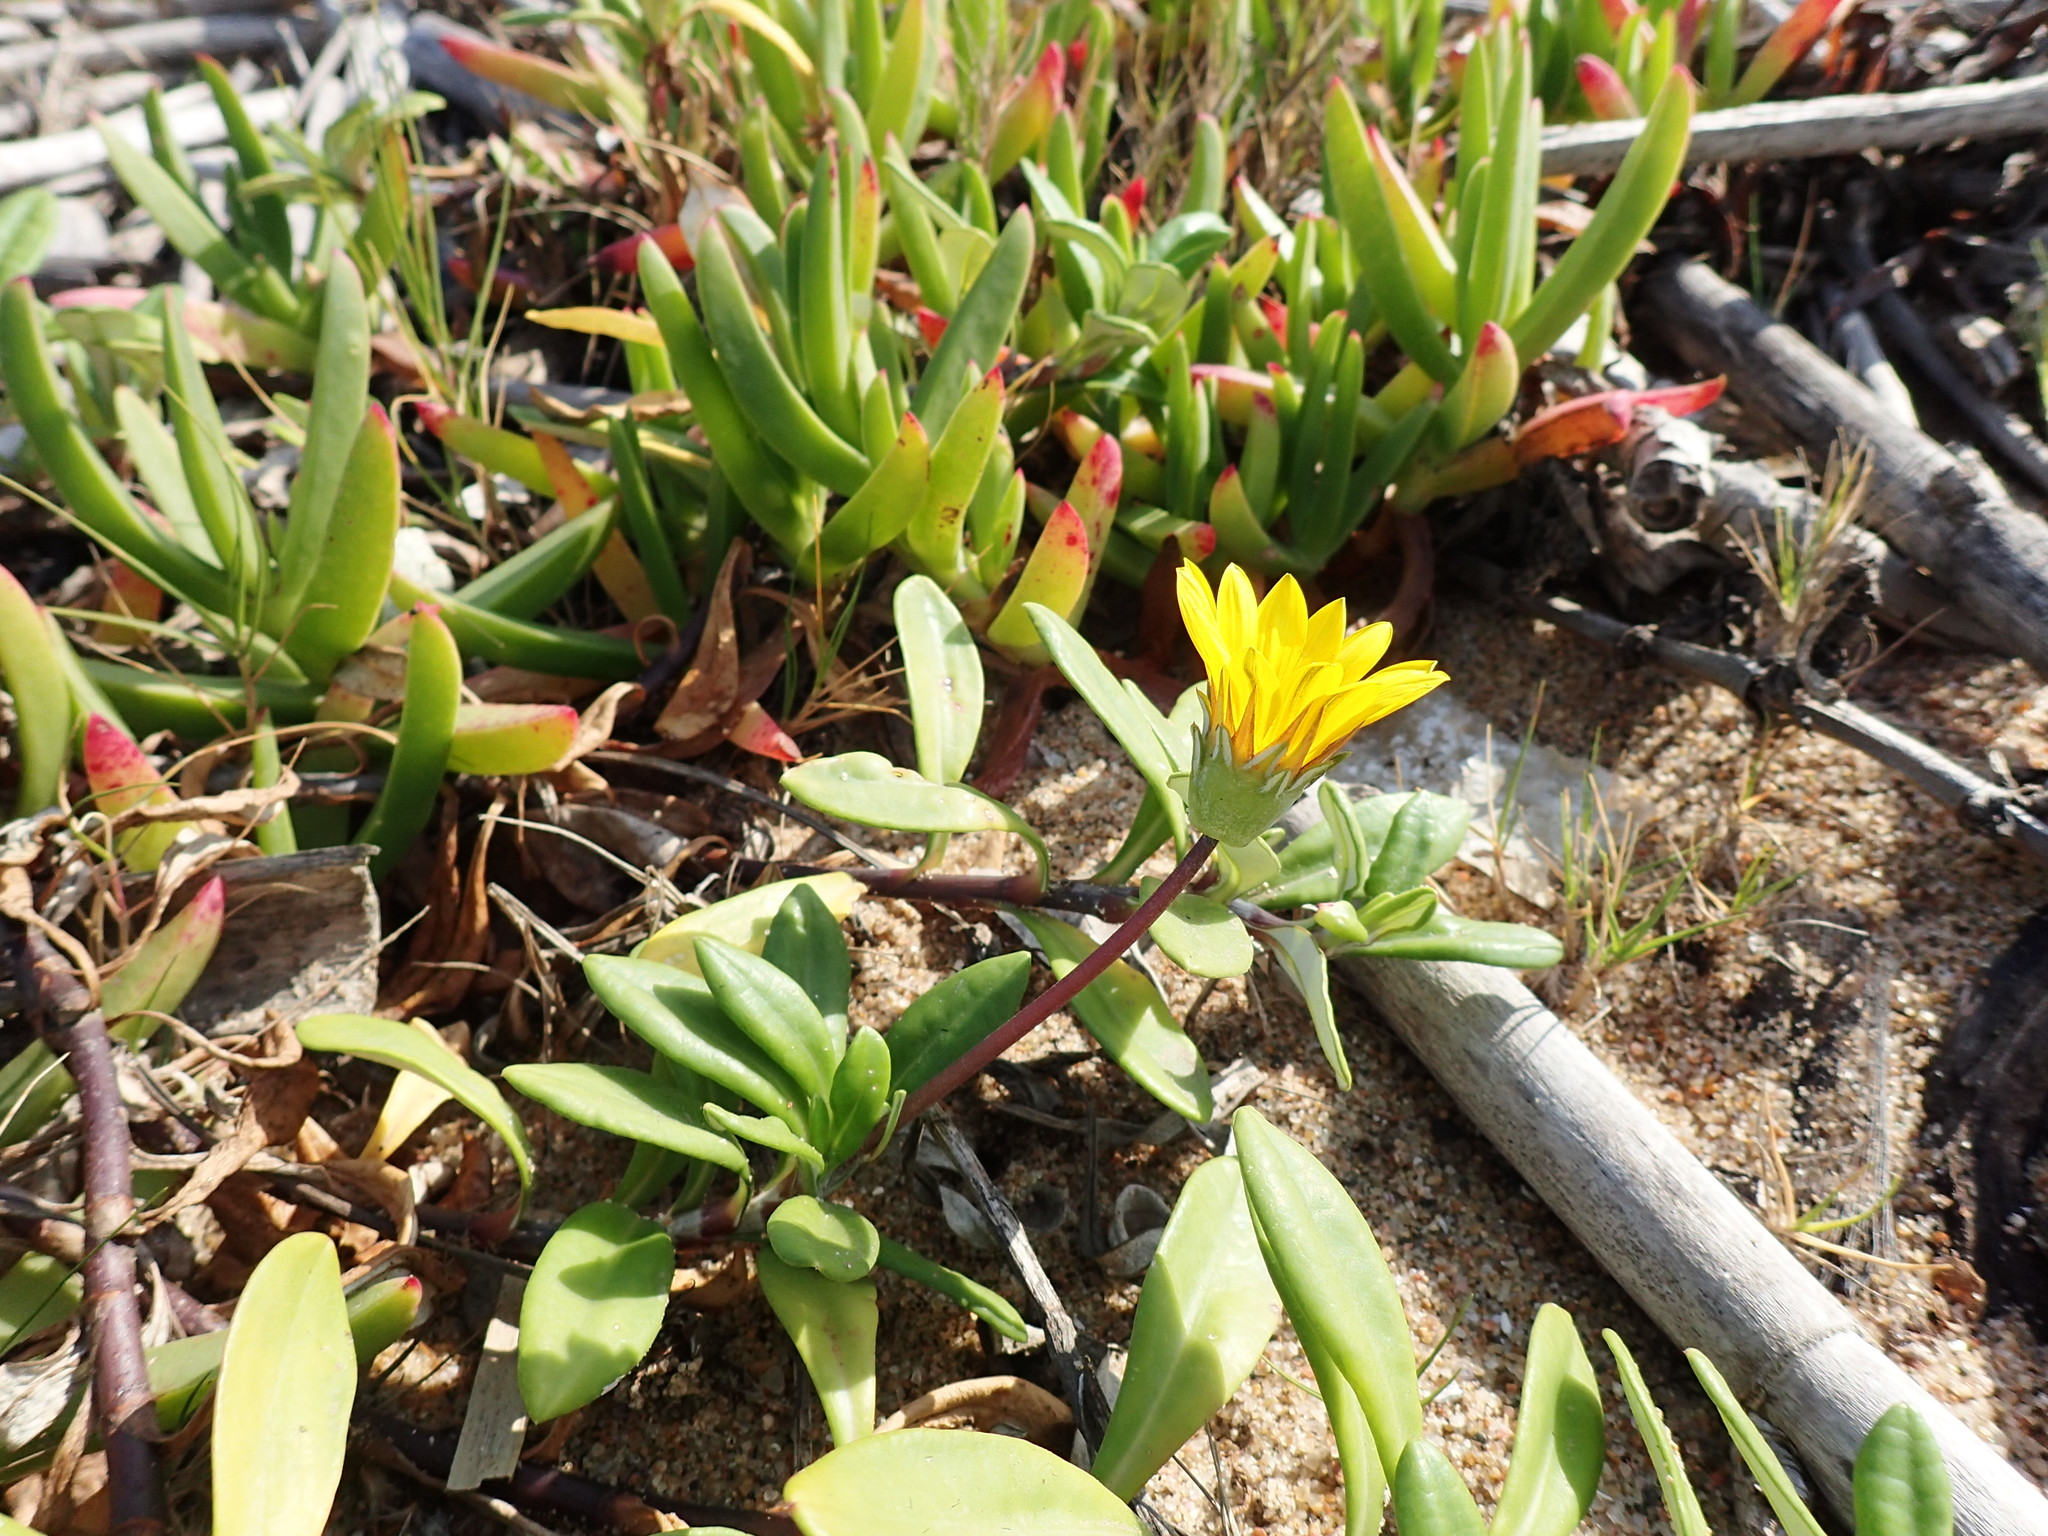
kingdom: Plantae
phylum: Tracheophyta
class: Magnoliopsida
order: Asterales
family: Asteraceae
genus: Gazania
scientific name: Gazania rigens
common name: Treasureflower
